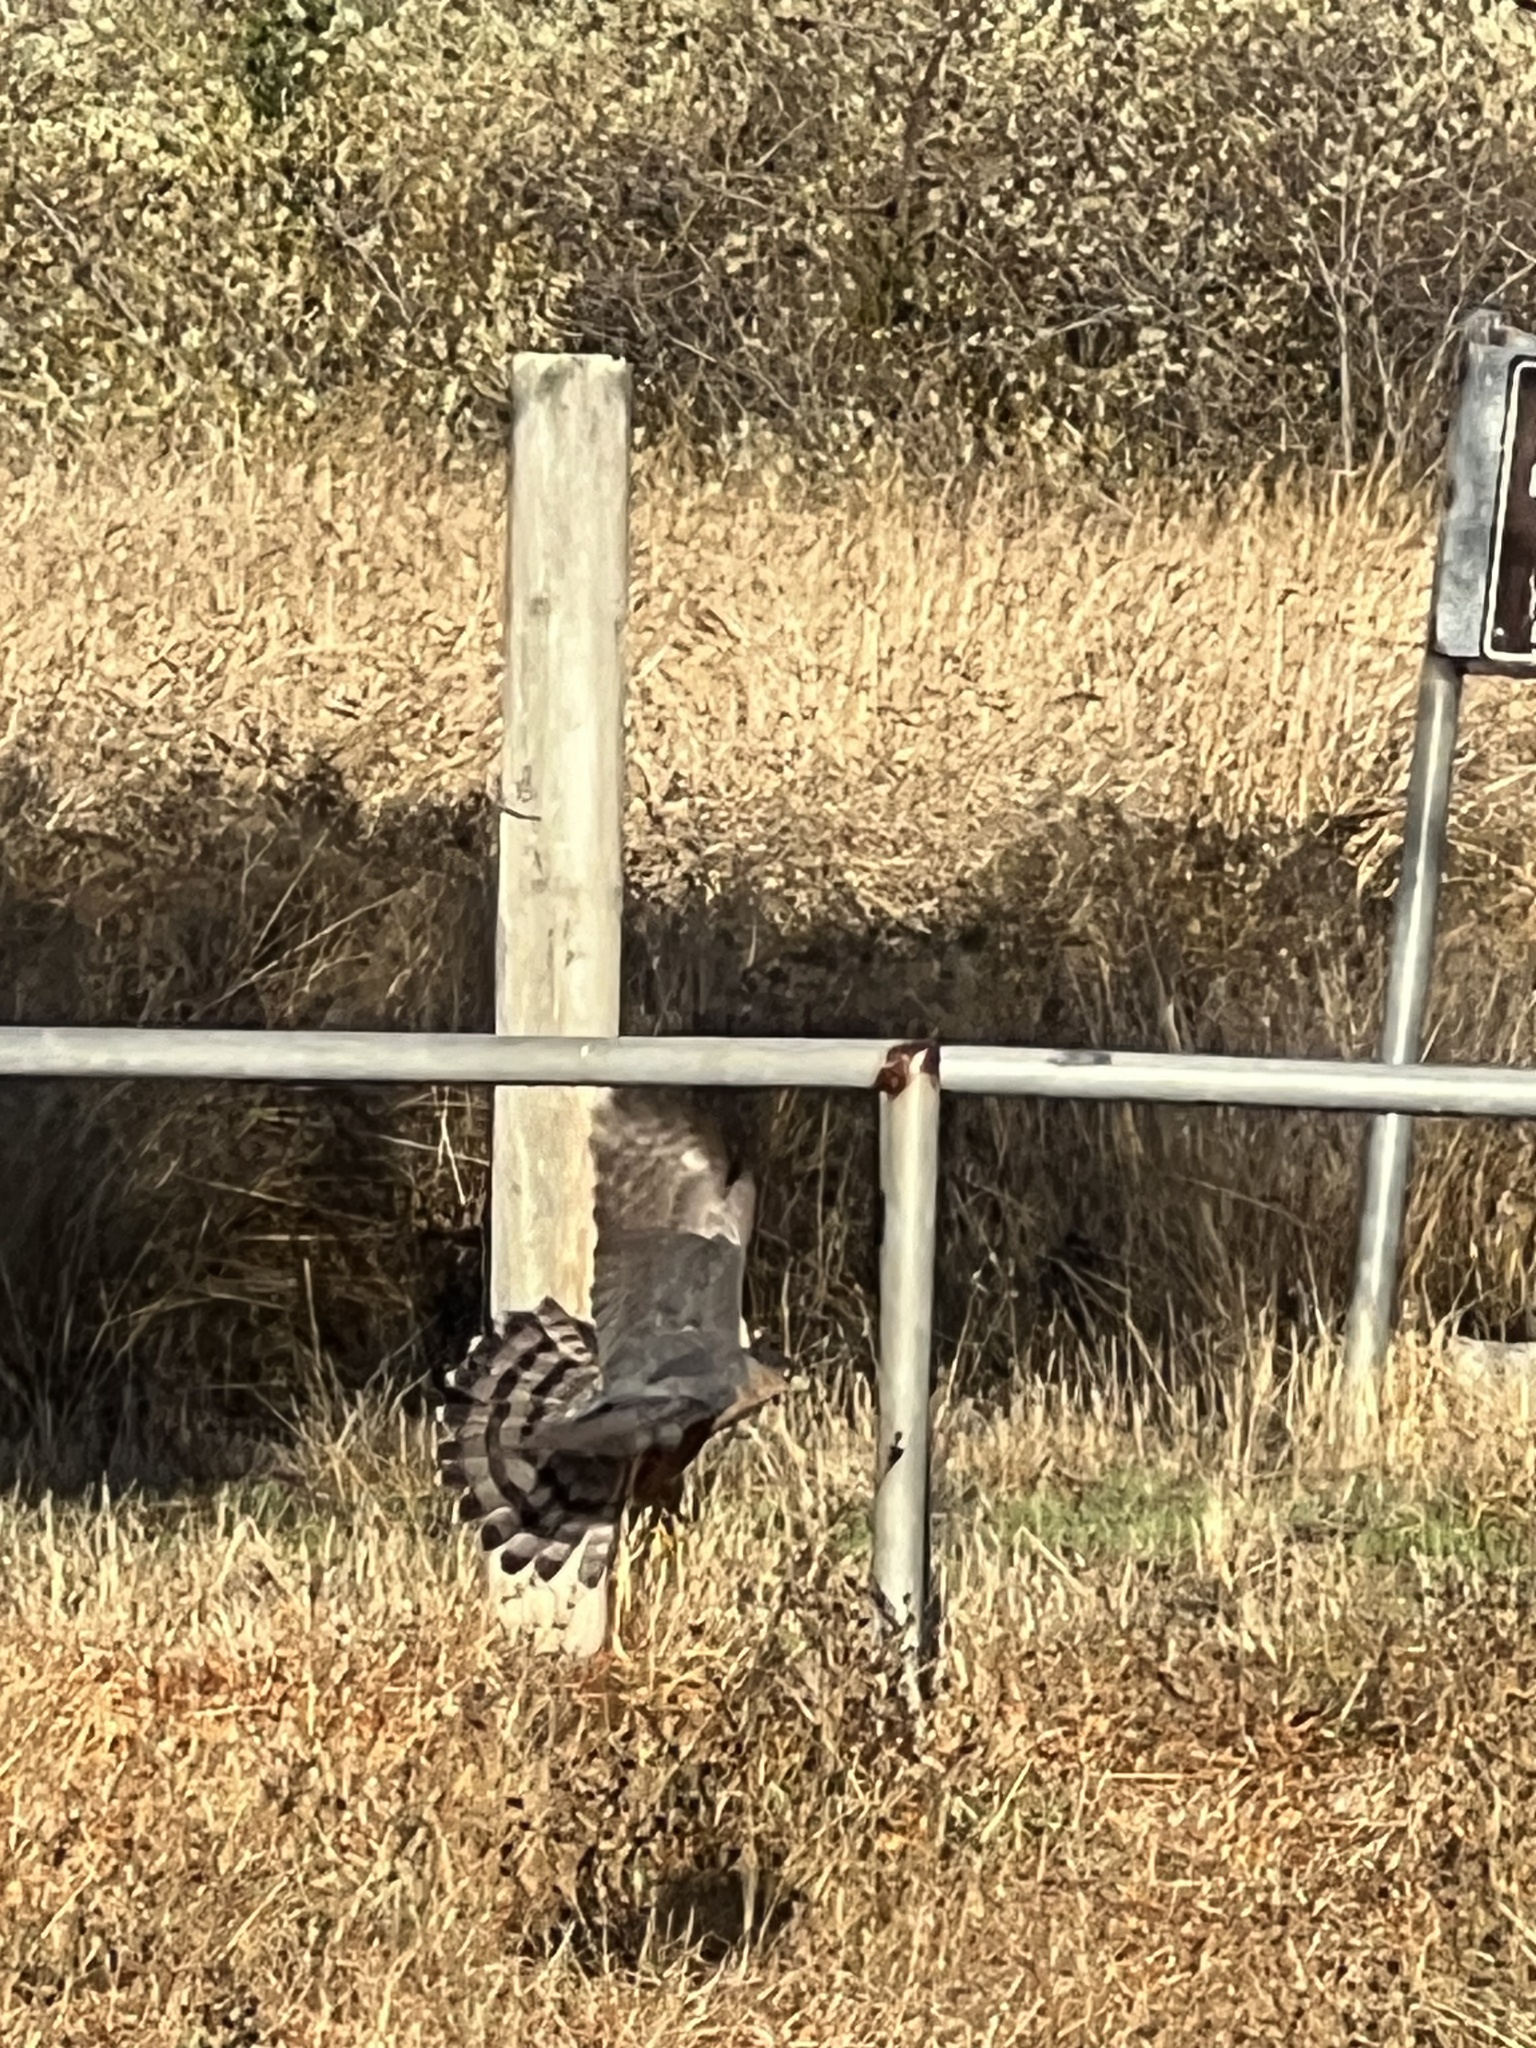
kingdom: Animalia
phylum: Chordata
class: Aves
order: Accipitriformes
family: Accipitridae
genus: Accipiter
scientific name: Accipiter cooperii
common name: Cooper's hawk
